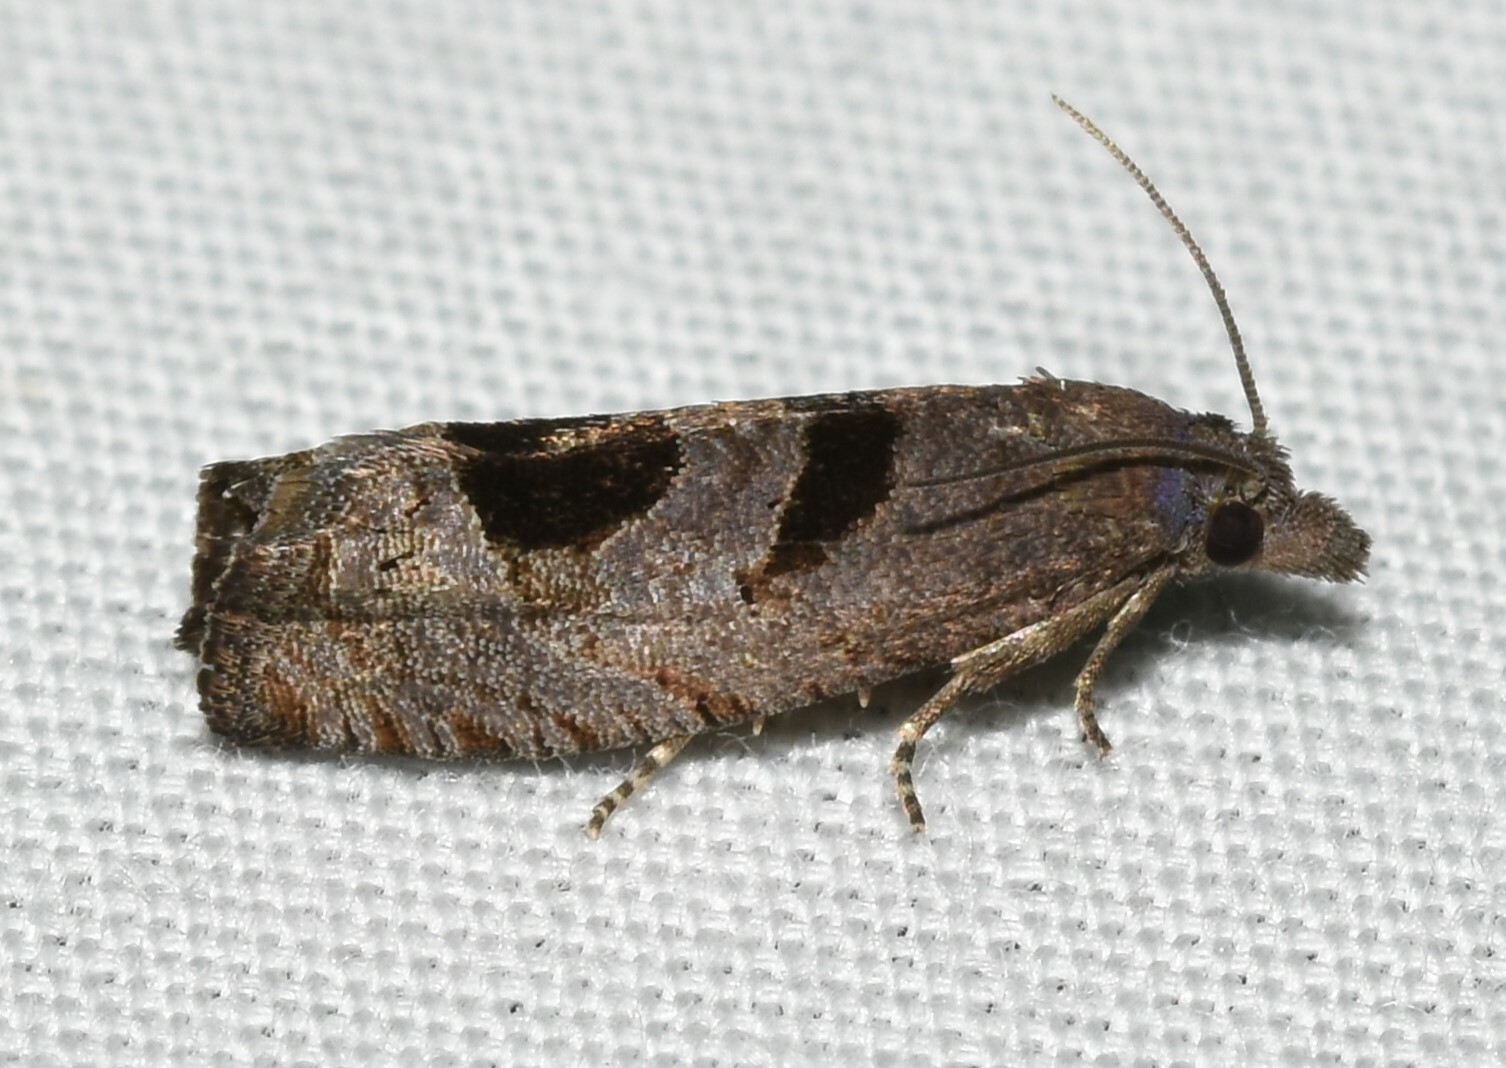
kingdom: Animalia
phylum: Arthropoda
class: Insecta
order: Lepidoptera
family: Tortricidae
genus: Eucosma
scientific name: Eucosma tomonana
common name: Aster-head eucosma moth
